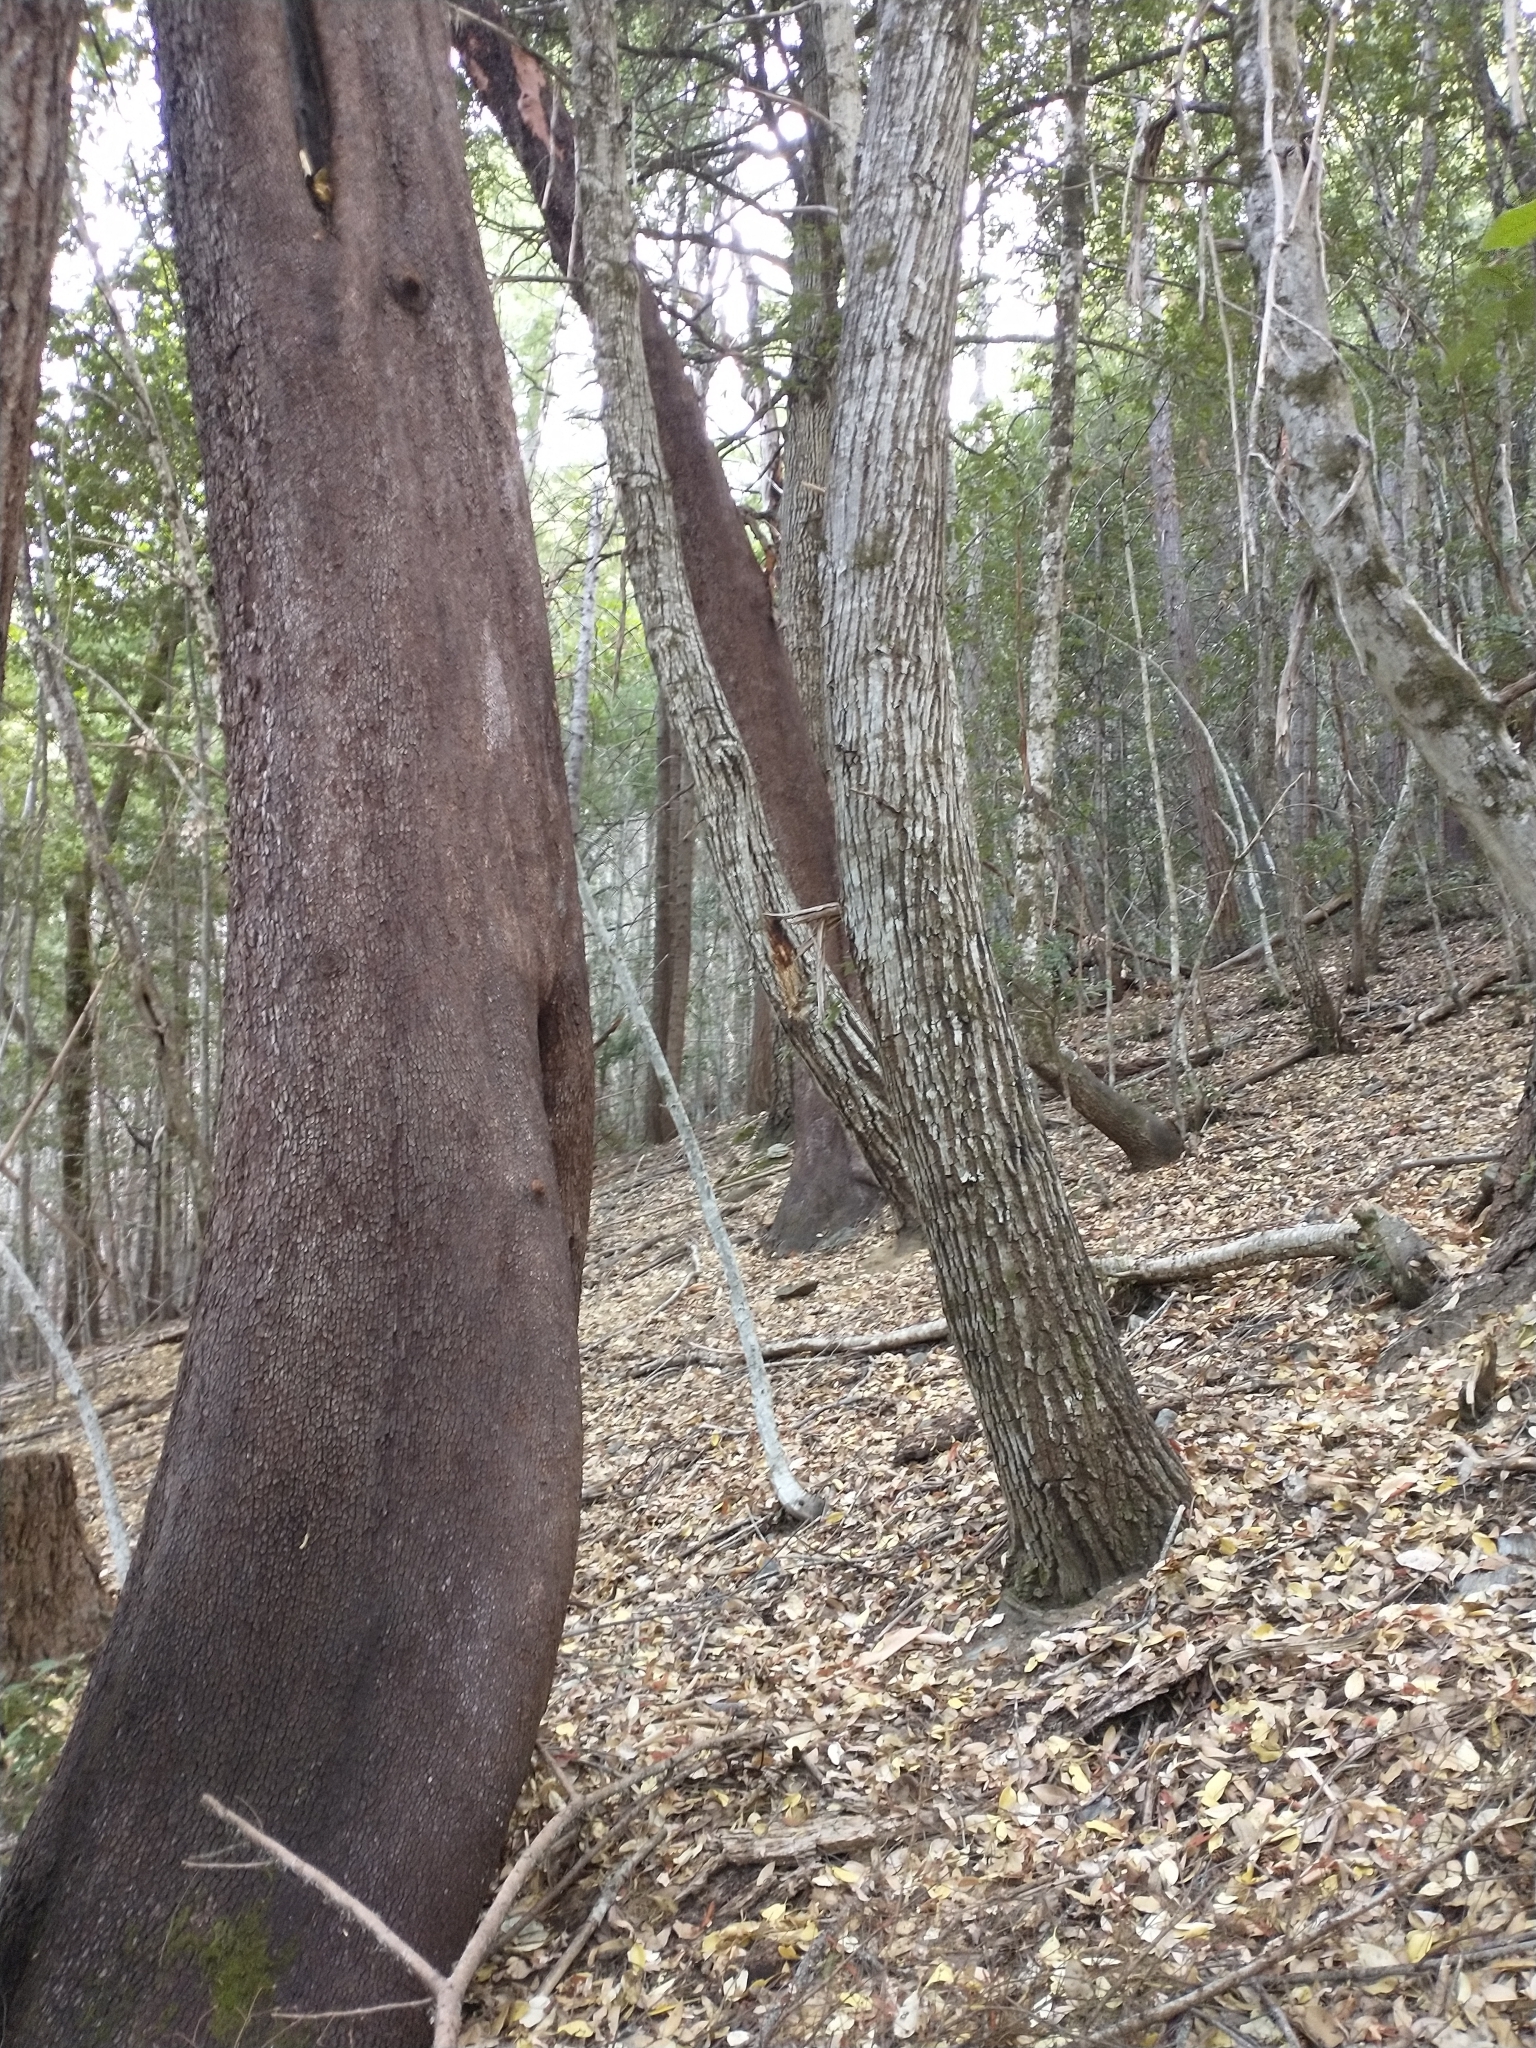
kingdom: Plantae
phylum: Tracheophyta
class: Magnoliopsida
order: Ericales
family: Ericaceae
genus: Arbutus
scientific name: Arbutus menziesii
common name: Pacific madrone
